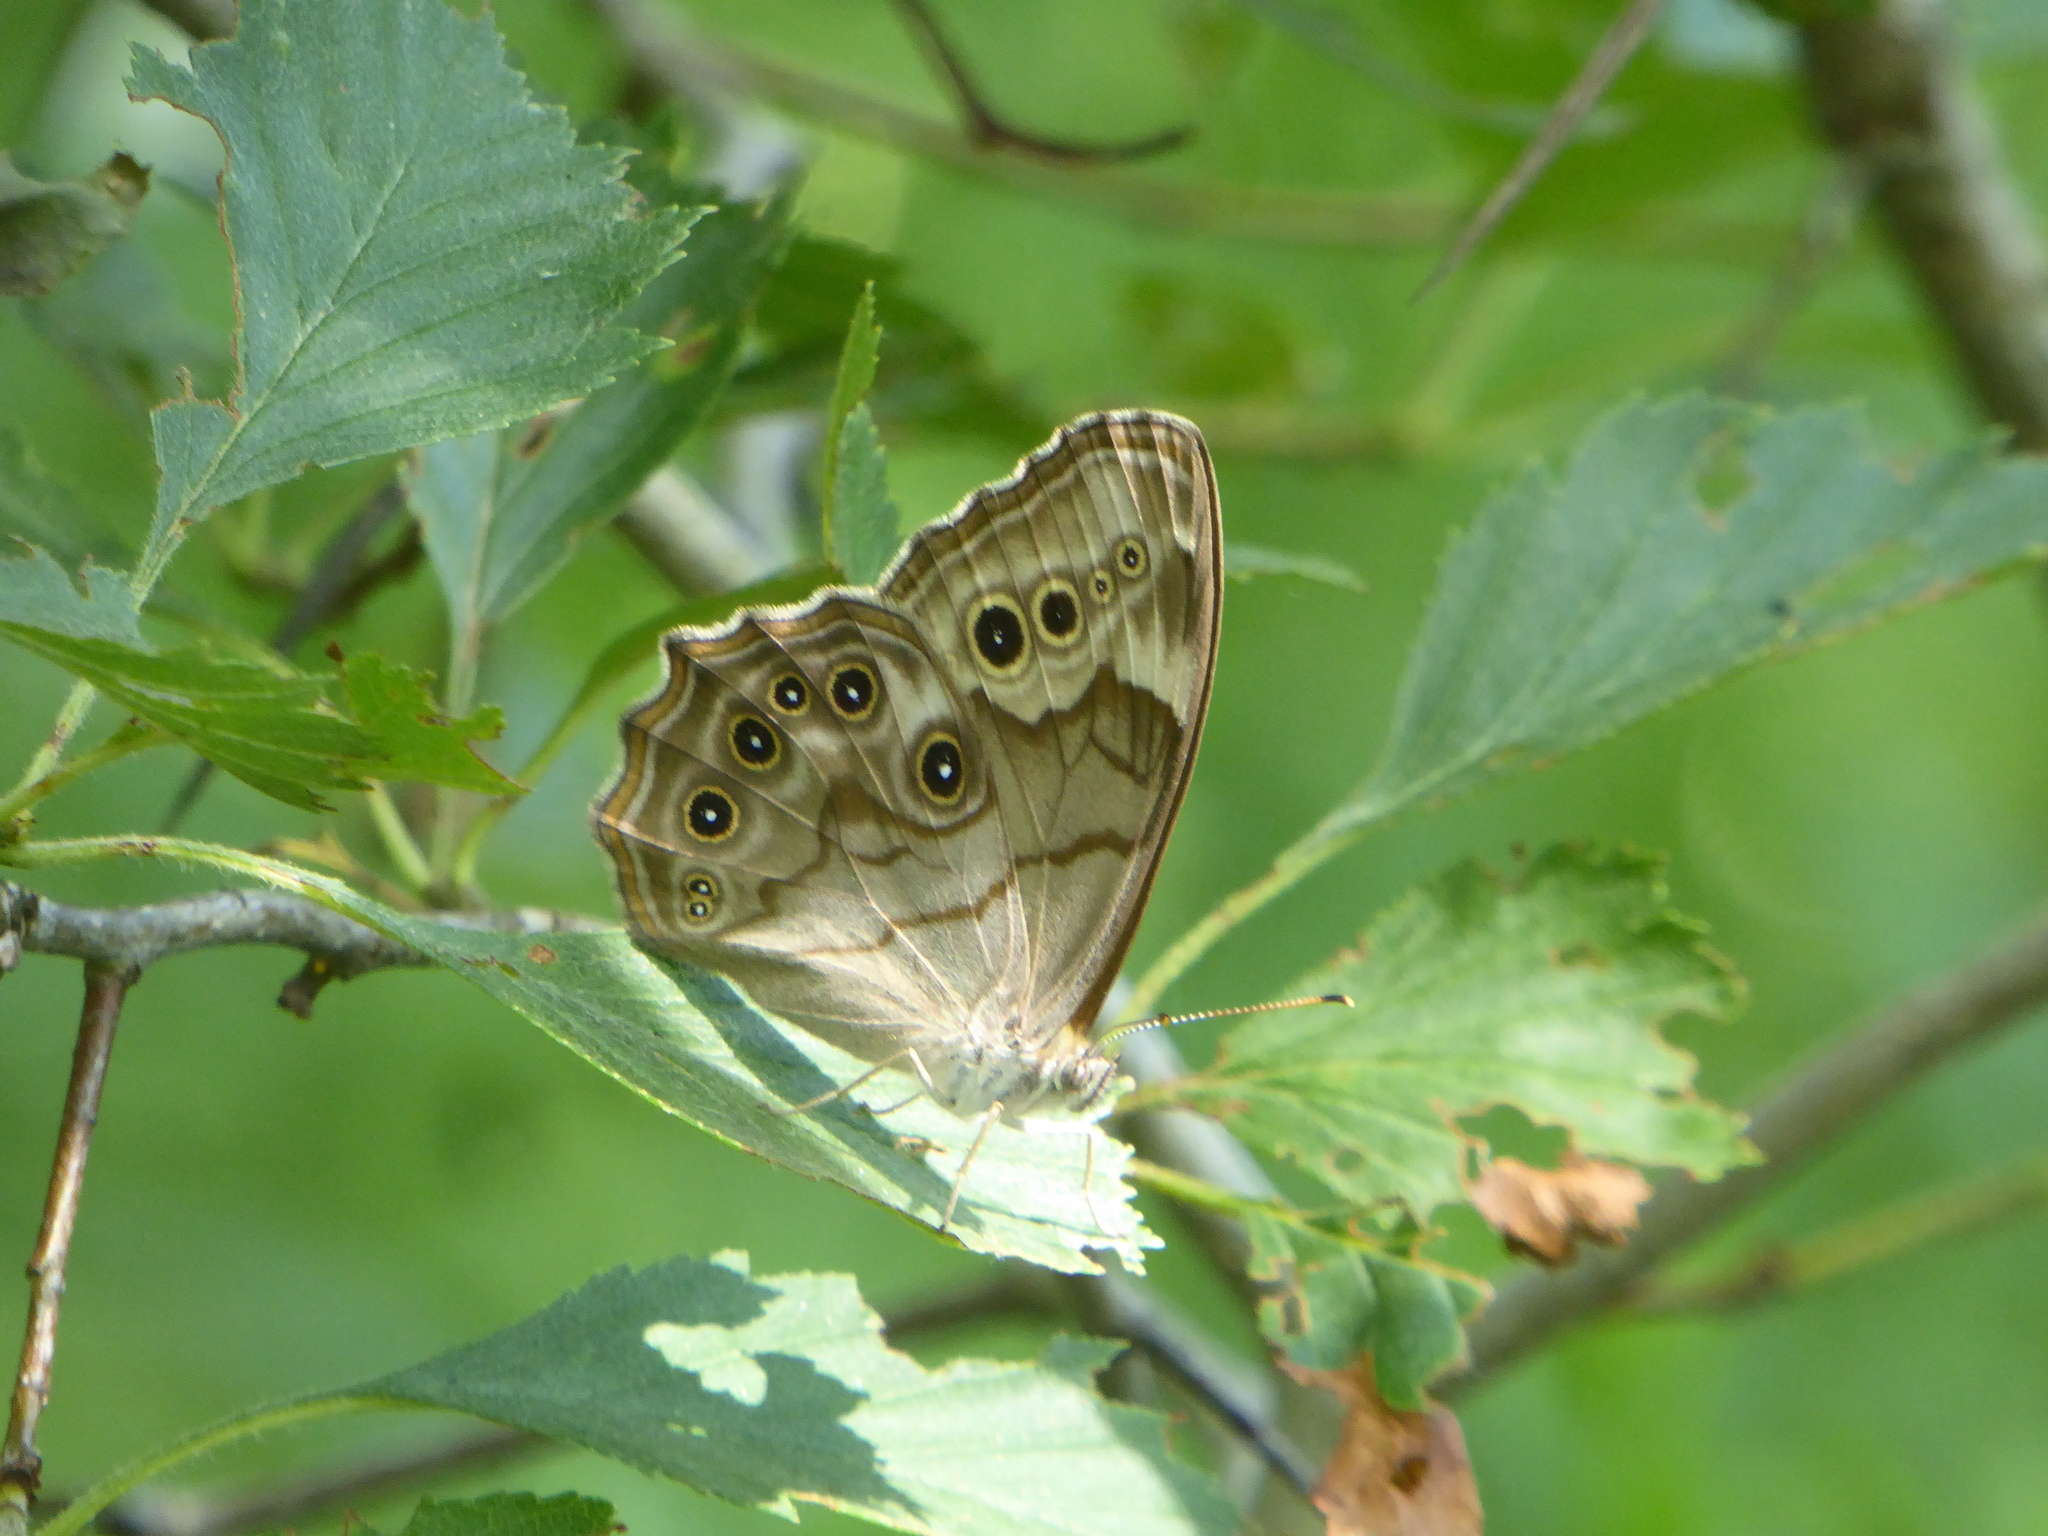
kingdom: Animalia
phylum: Arthropoda
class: Insecta
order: Lepidoptera
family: Nymphalidae
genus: Lethe
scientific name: Lethe anthedon
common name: Northern pearly-eye
